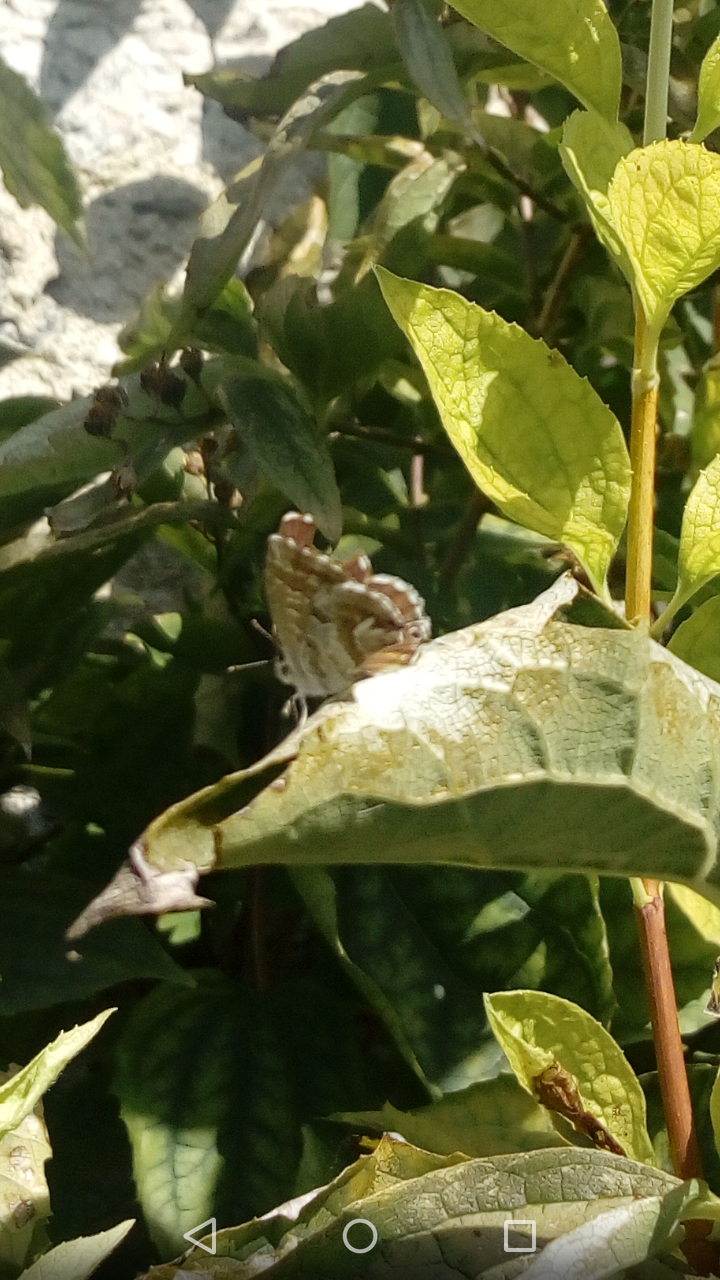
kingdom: Animalia
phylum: Arthropoda
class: Insecta
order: Lepidoptera
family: Lycaenidae
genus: Cacyreus
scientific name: Cacyreus marshalli
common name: Geranium bronze
